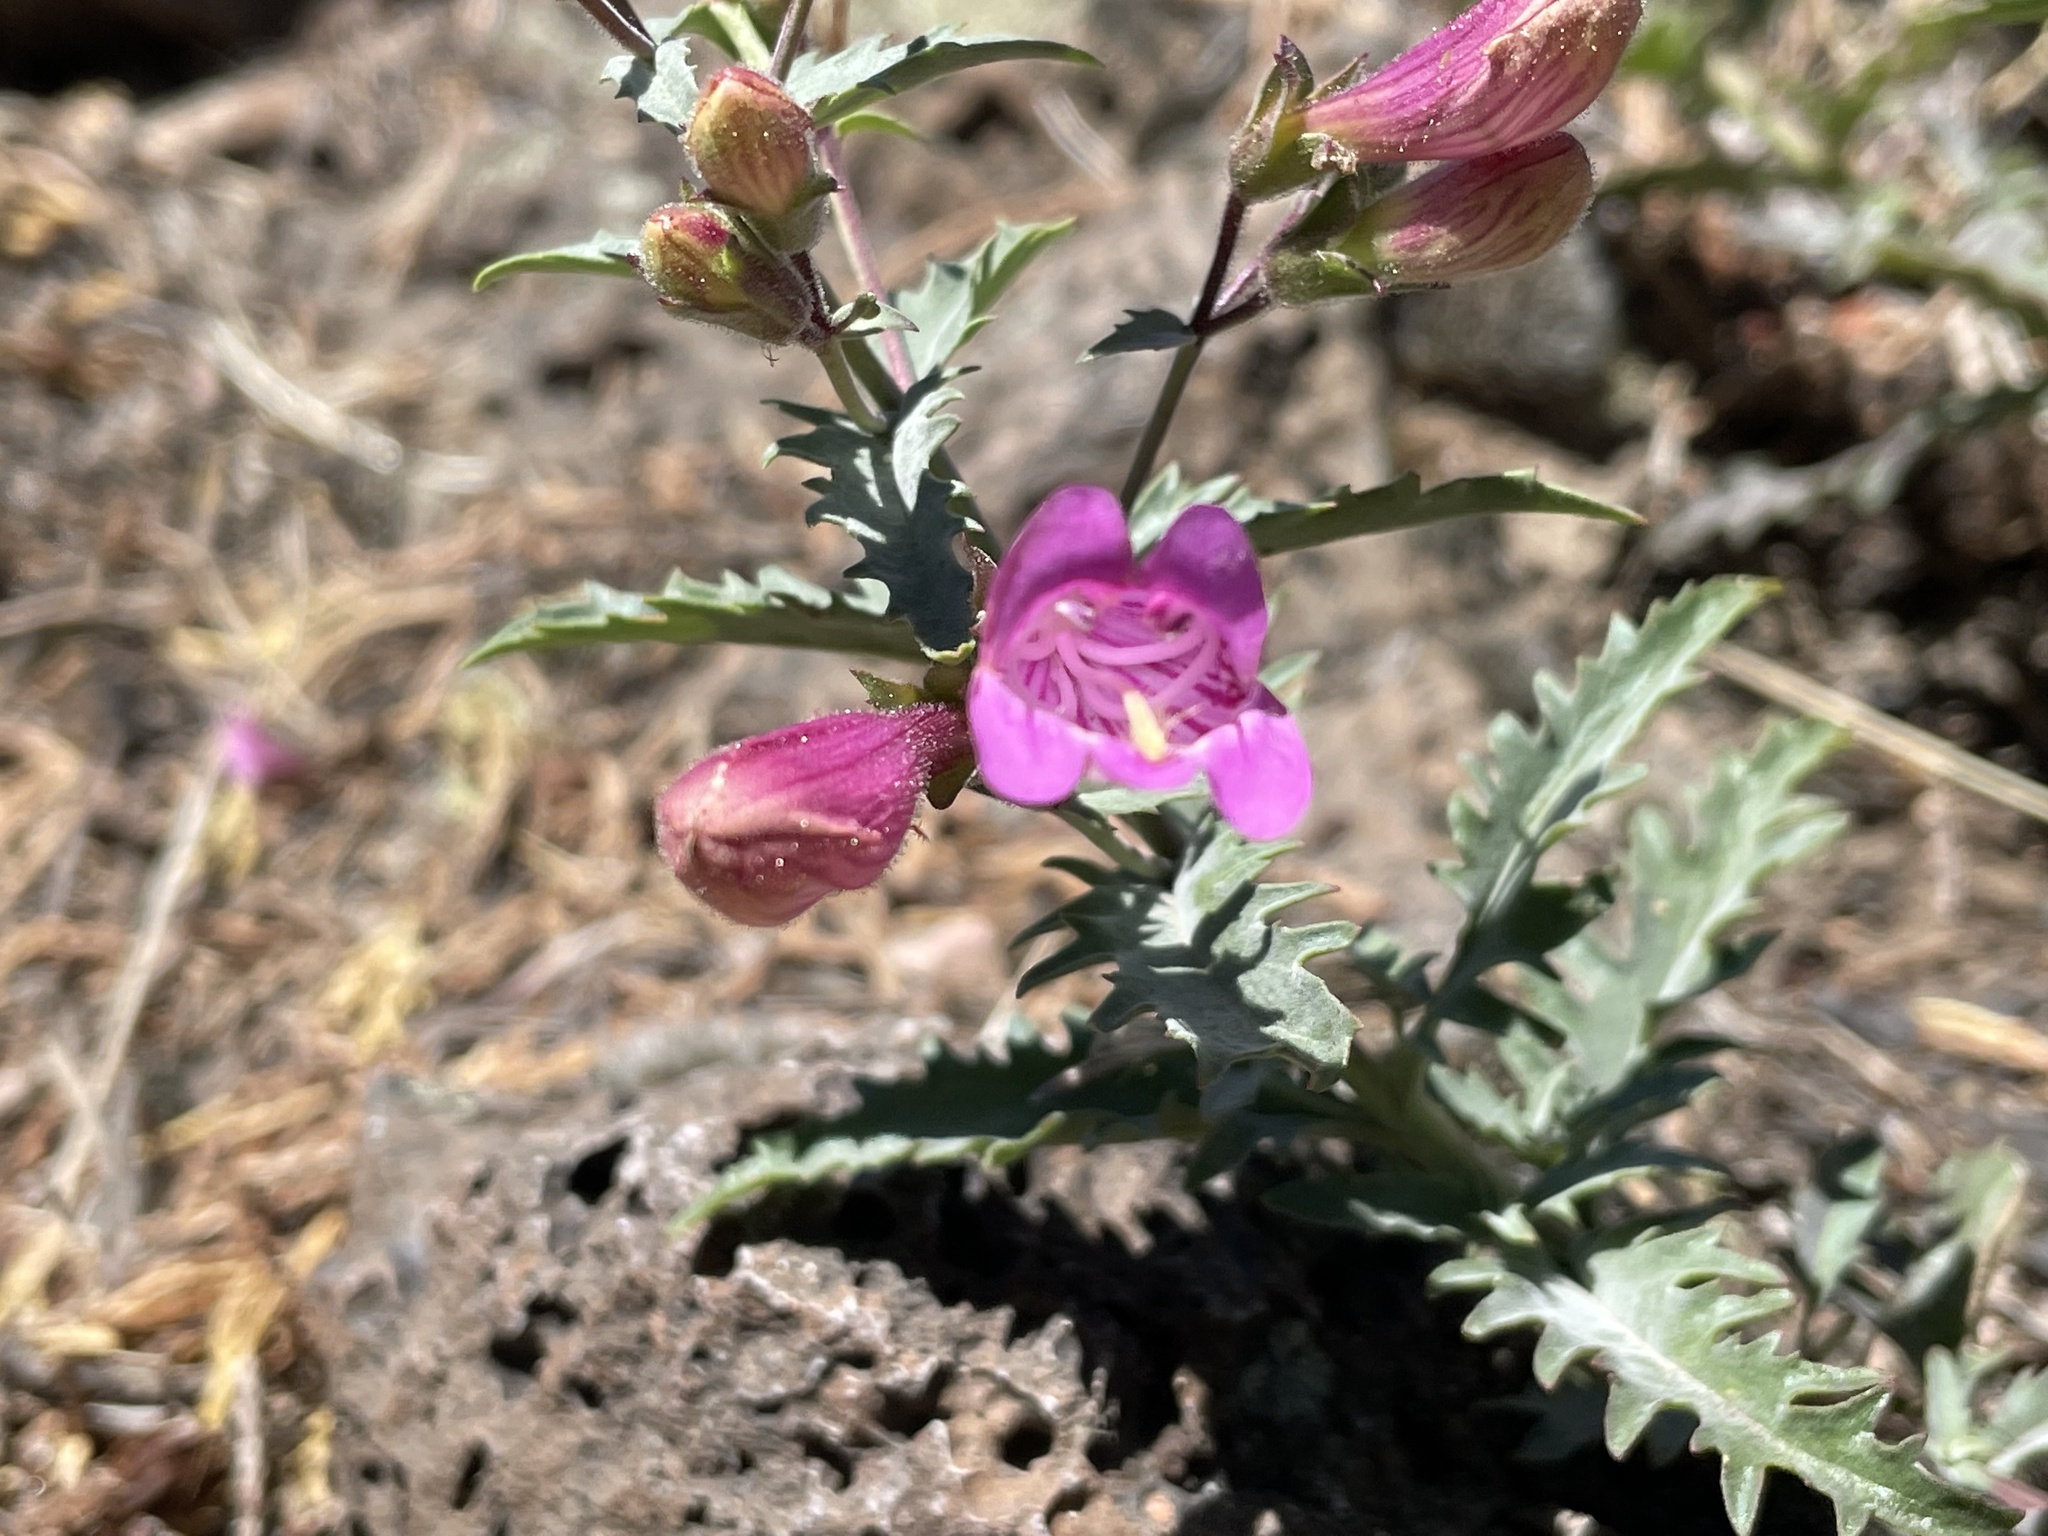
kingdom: Plantae
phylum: Tracheophyta
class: Magnoliopsida
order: Lamiales
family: Plantaginaceae
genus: Penstemon
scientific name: Penstemon richardsonii
